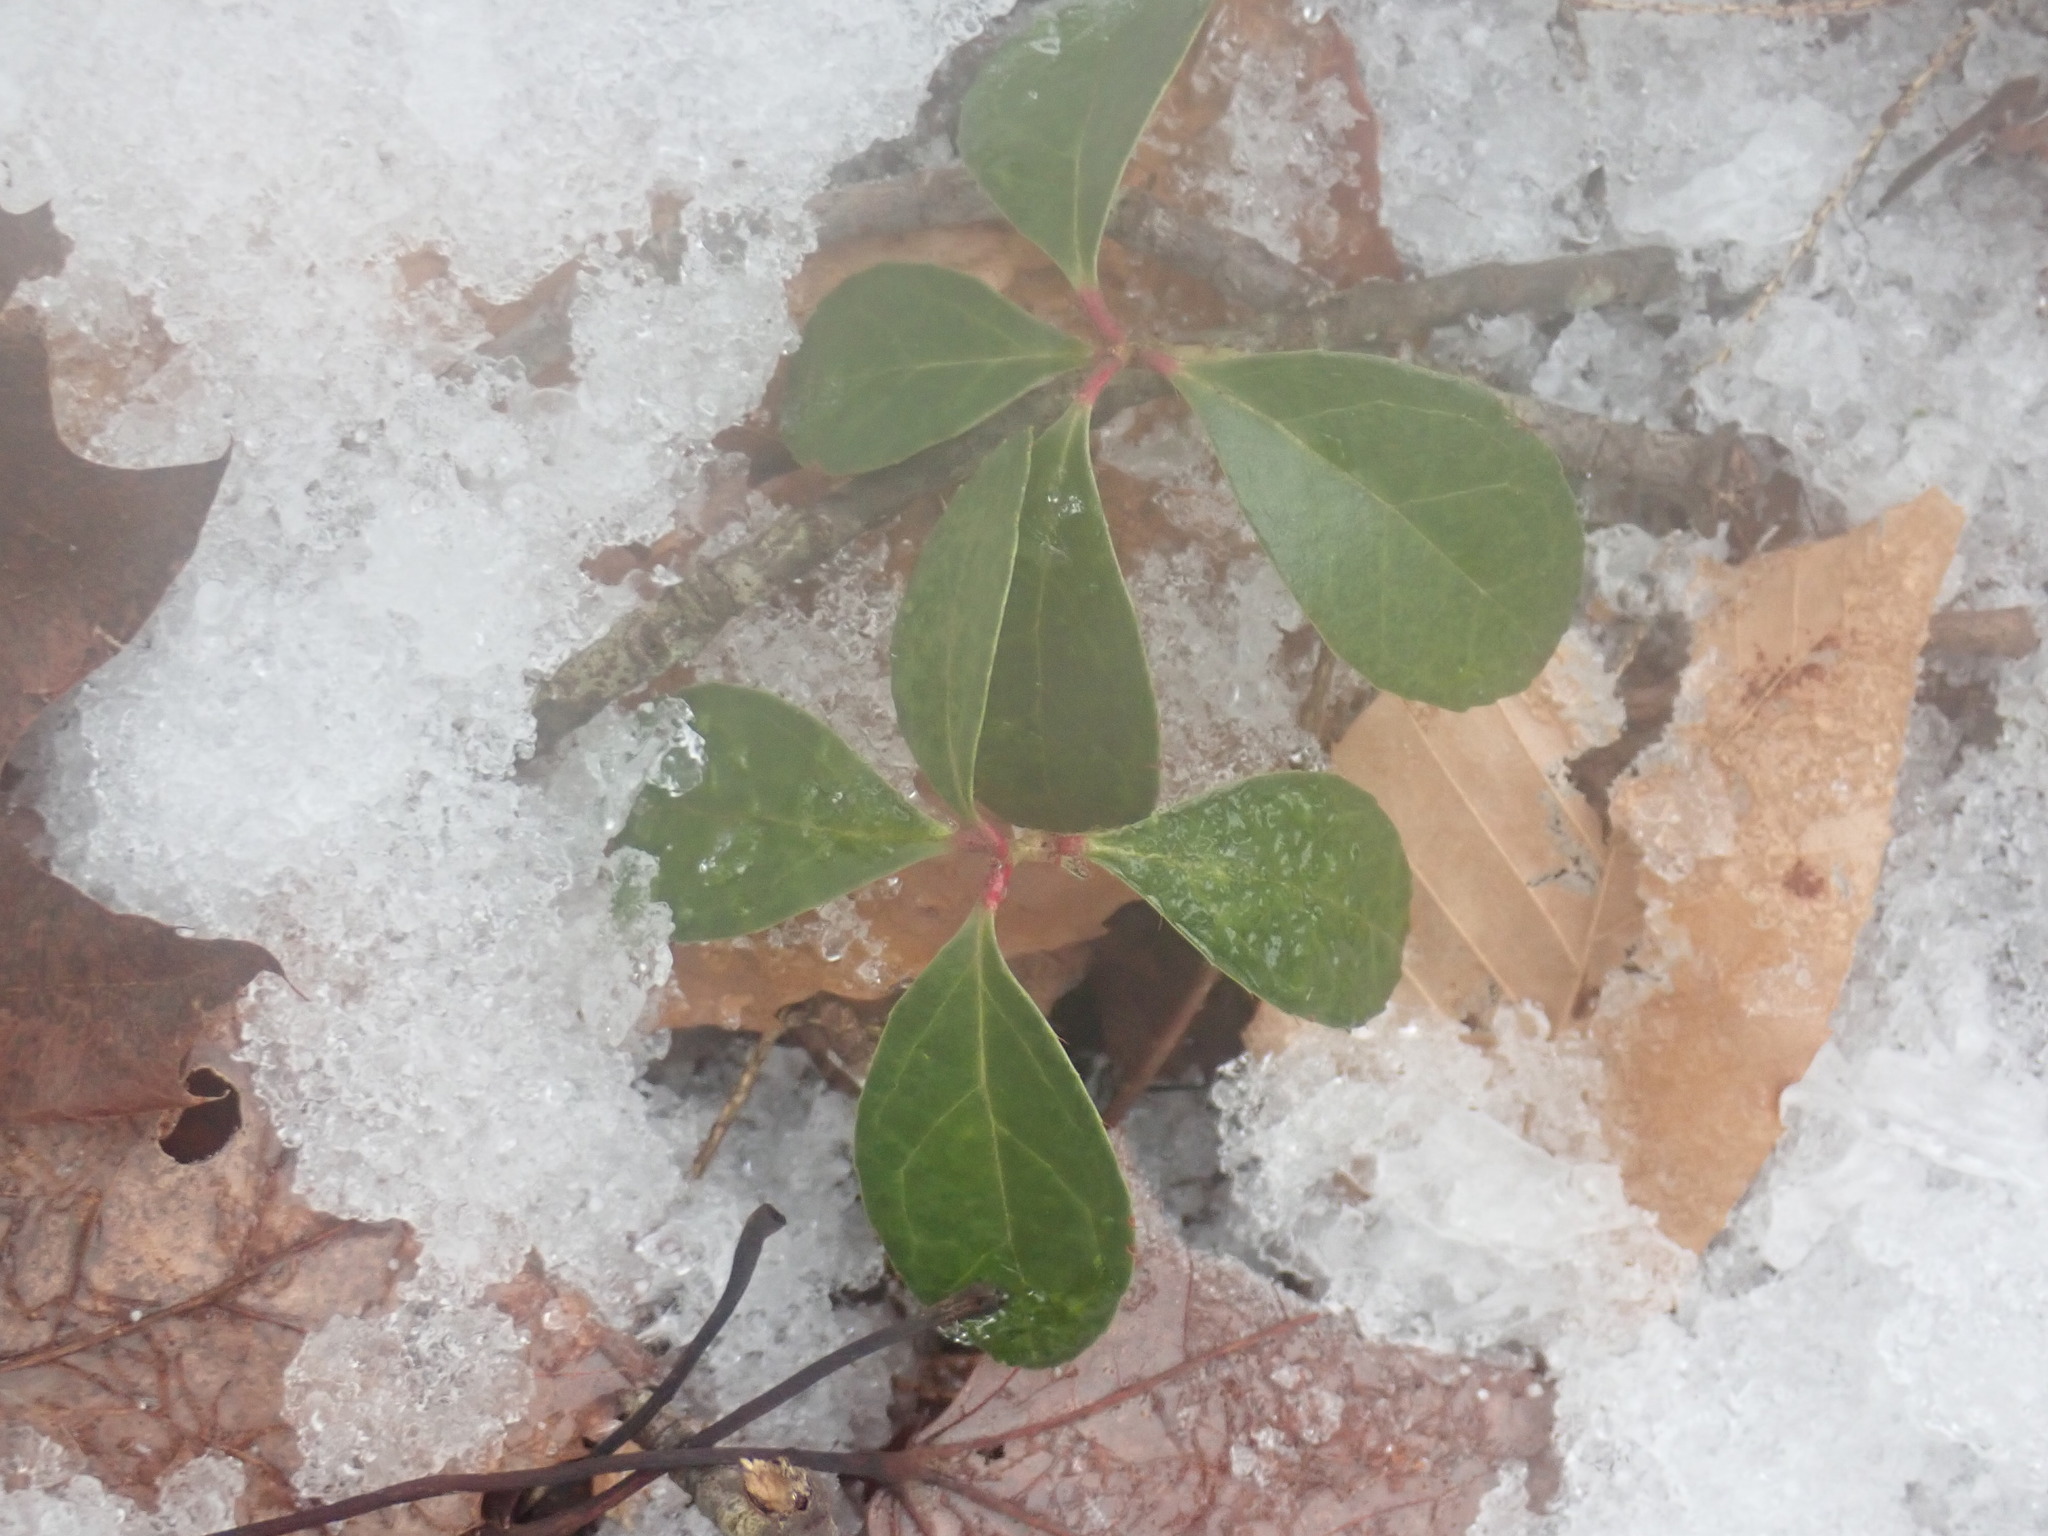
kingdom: Plantae
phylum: Tracheophyta
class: Magnoliopsida
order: Ericales
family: Ericaceae
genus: Gaultheria
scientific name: Gaultheria procumbens
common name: Checkerberry
